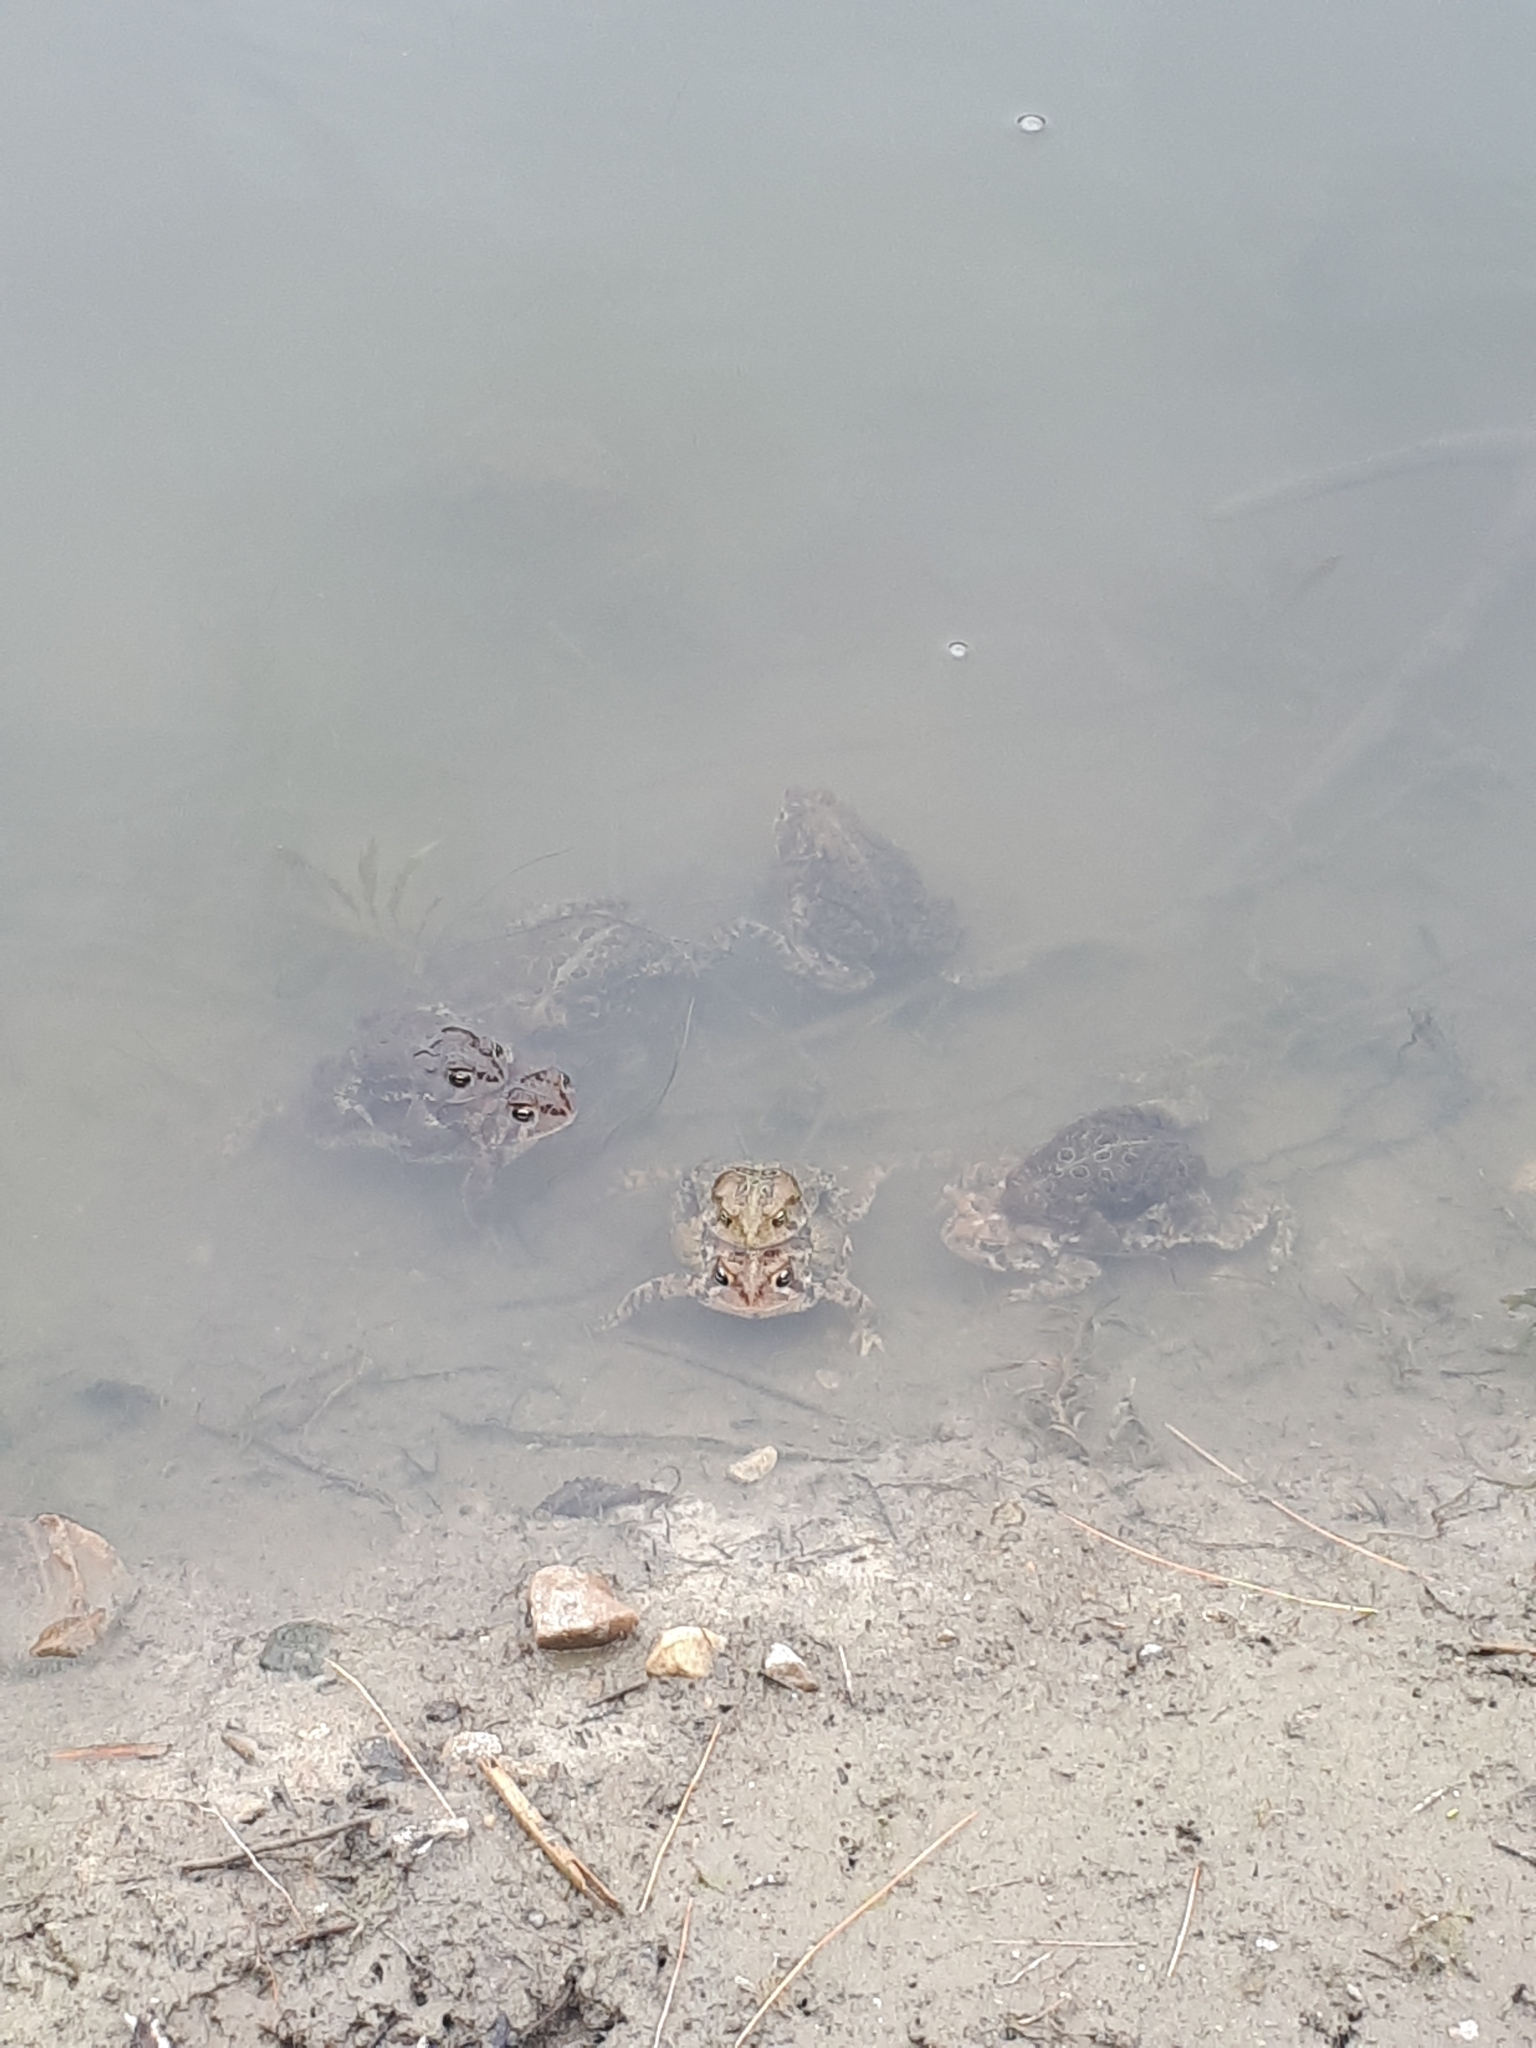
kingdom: Animalia
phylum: Chordata
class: Amphibia
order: Anura
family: Bufonidae
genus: Anaxyrus
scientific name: Anaxyrus americanus
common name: American toad
